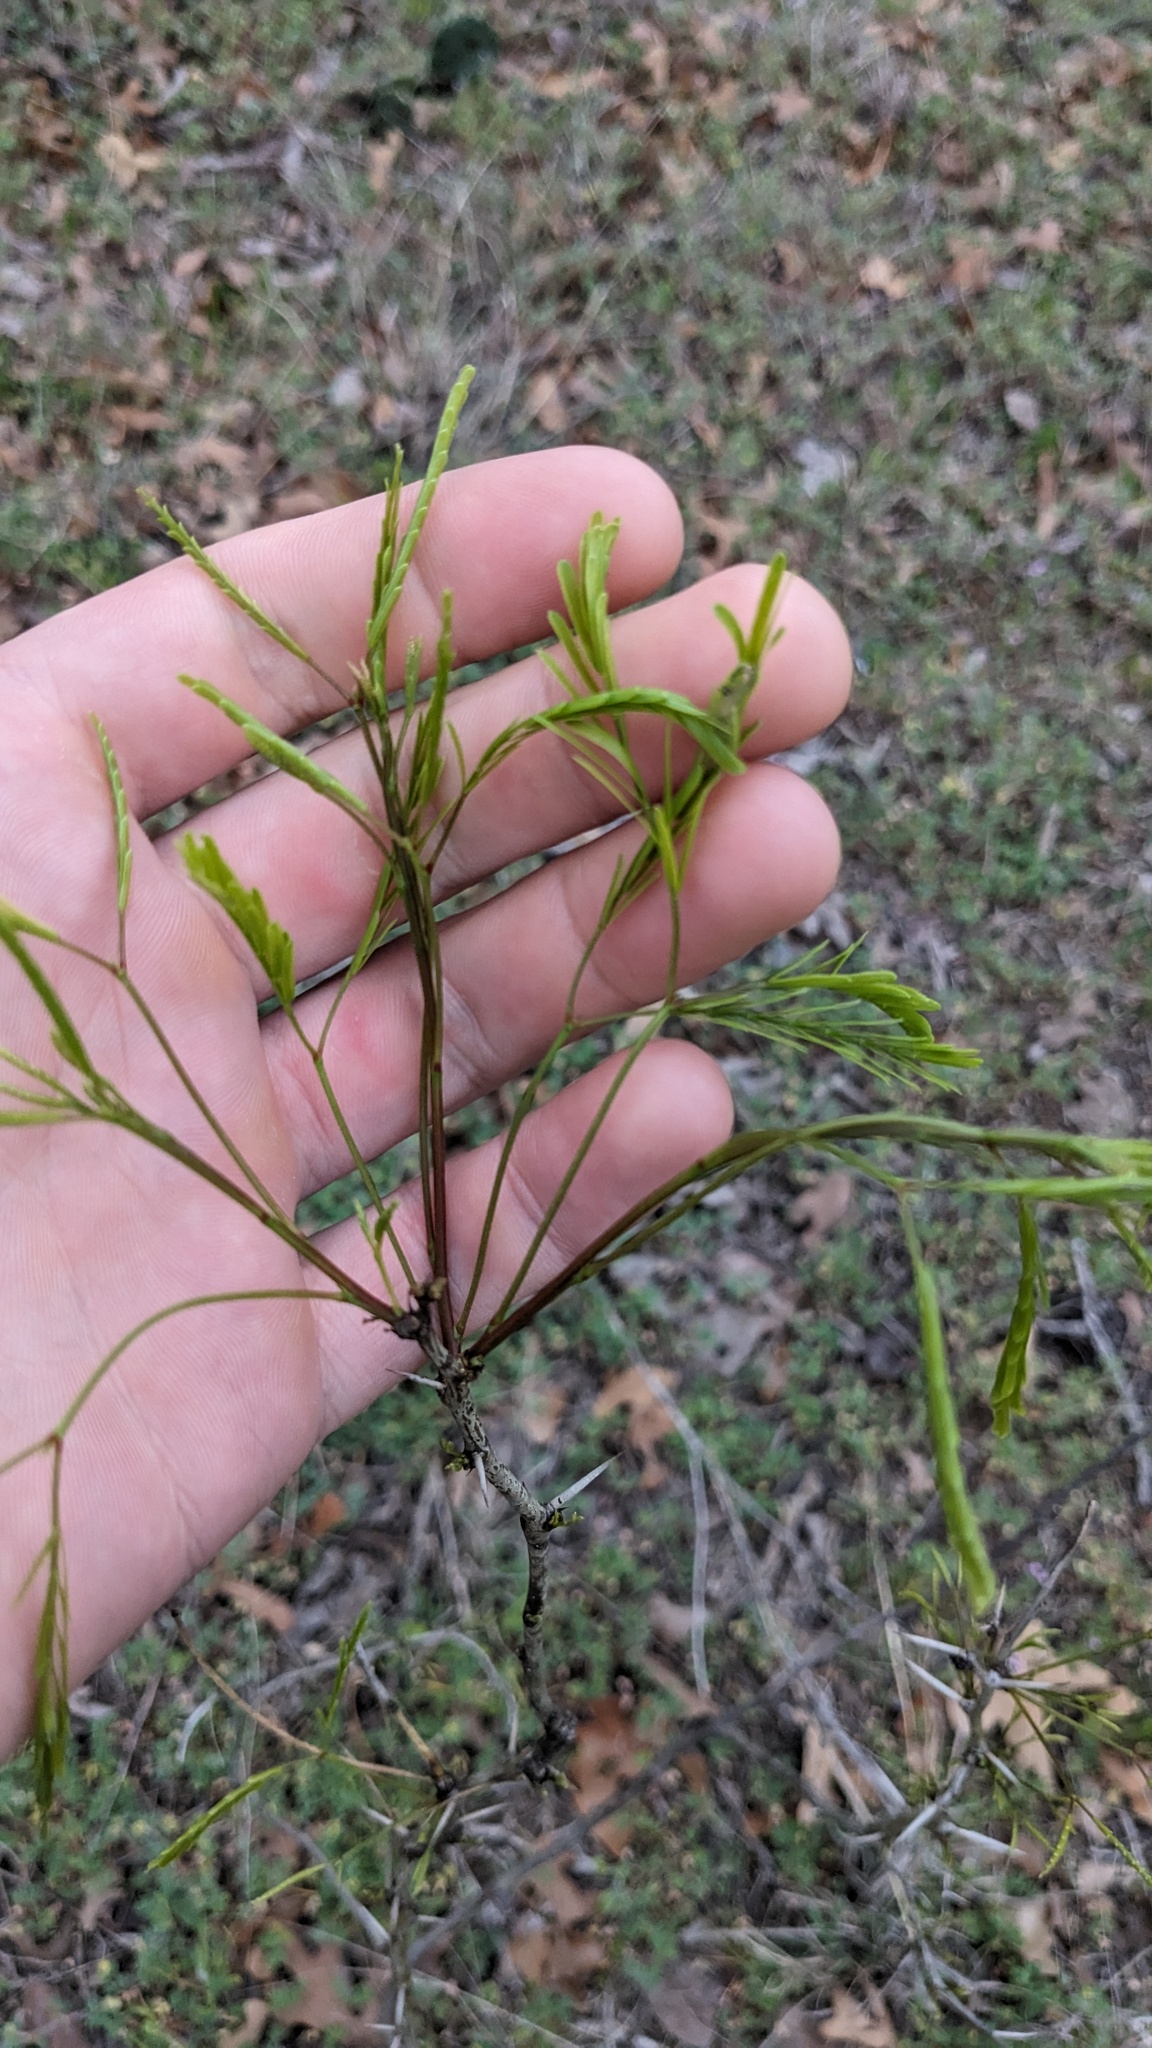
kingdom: Plantae
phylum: Tracheophyta
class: Magnoliopsida
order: Fabales
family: Fabaceae
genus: Prosopis
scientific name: Prosopis glandulosa
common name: Honey mesquite
